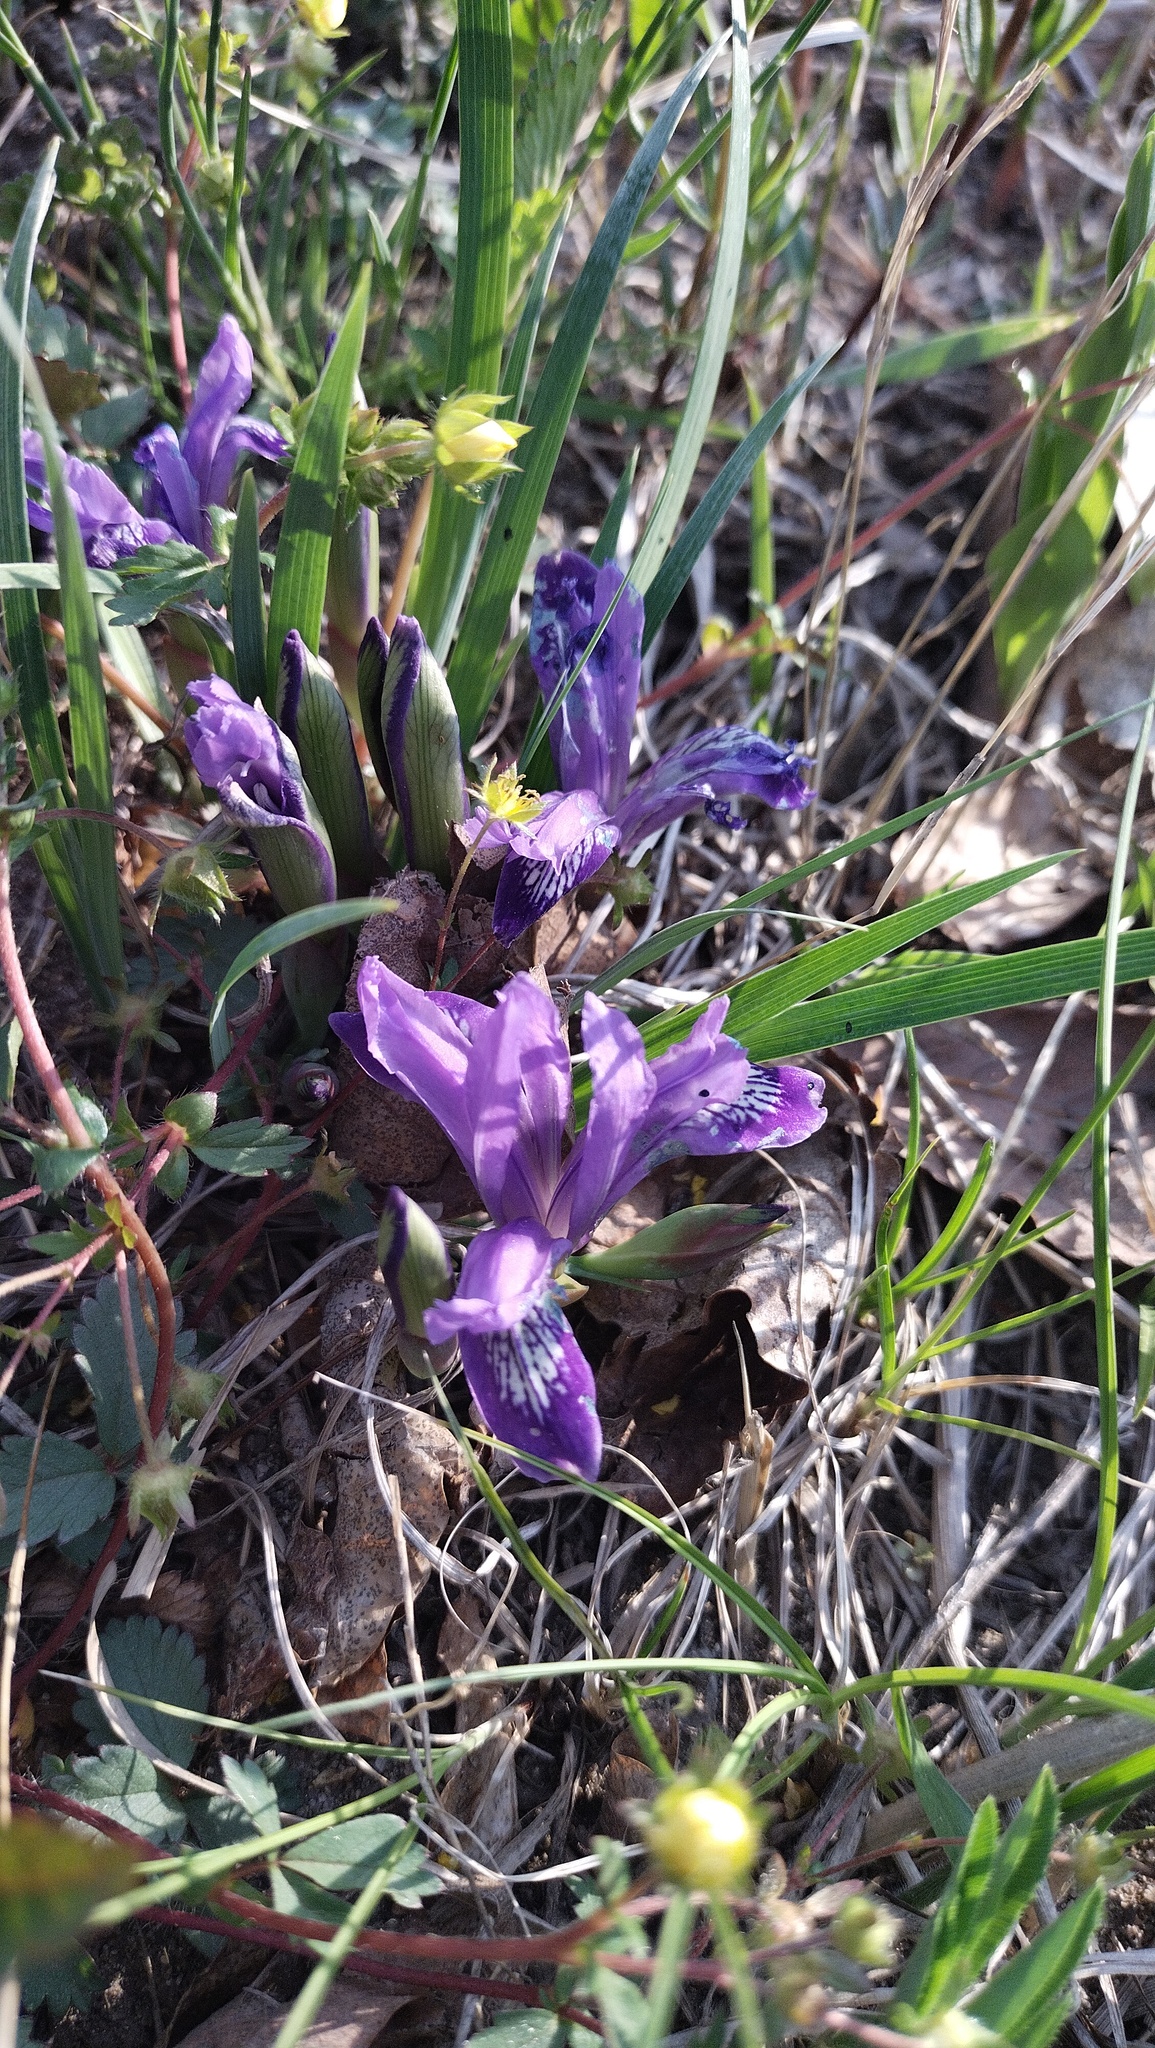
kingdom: Plantae
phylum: Tracheophyta
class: Liliopsida
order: Asparagales
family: Iridaceae
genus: Iris
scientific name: Iris uniflora
